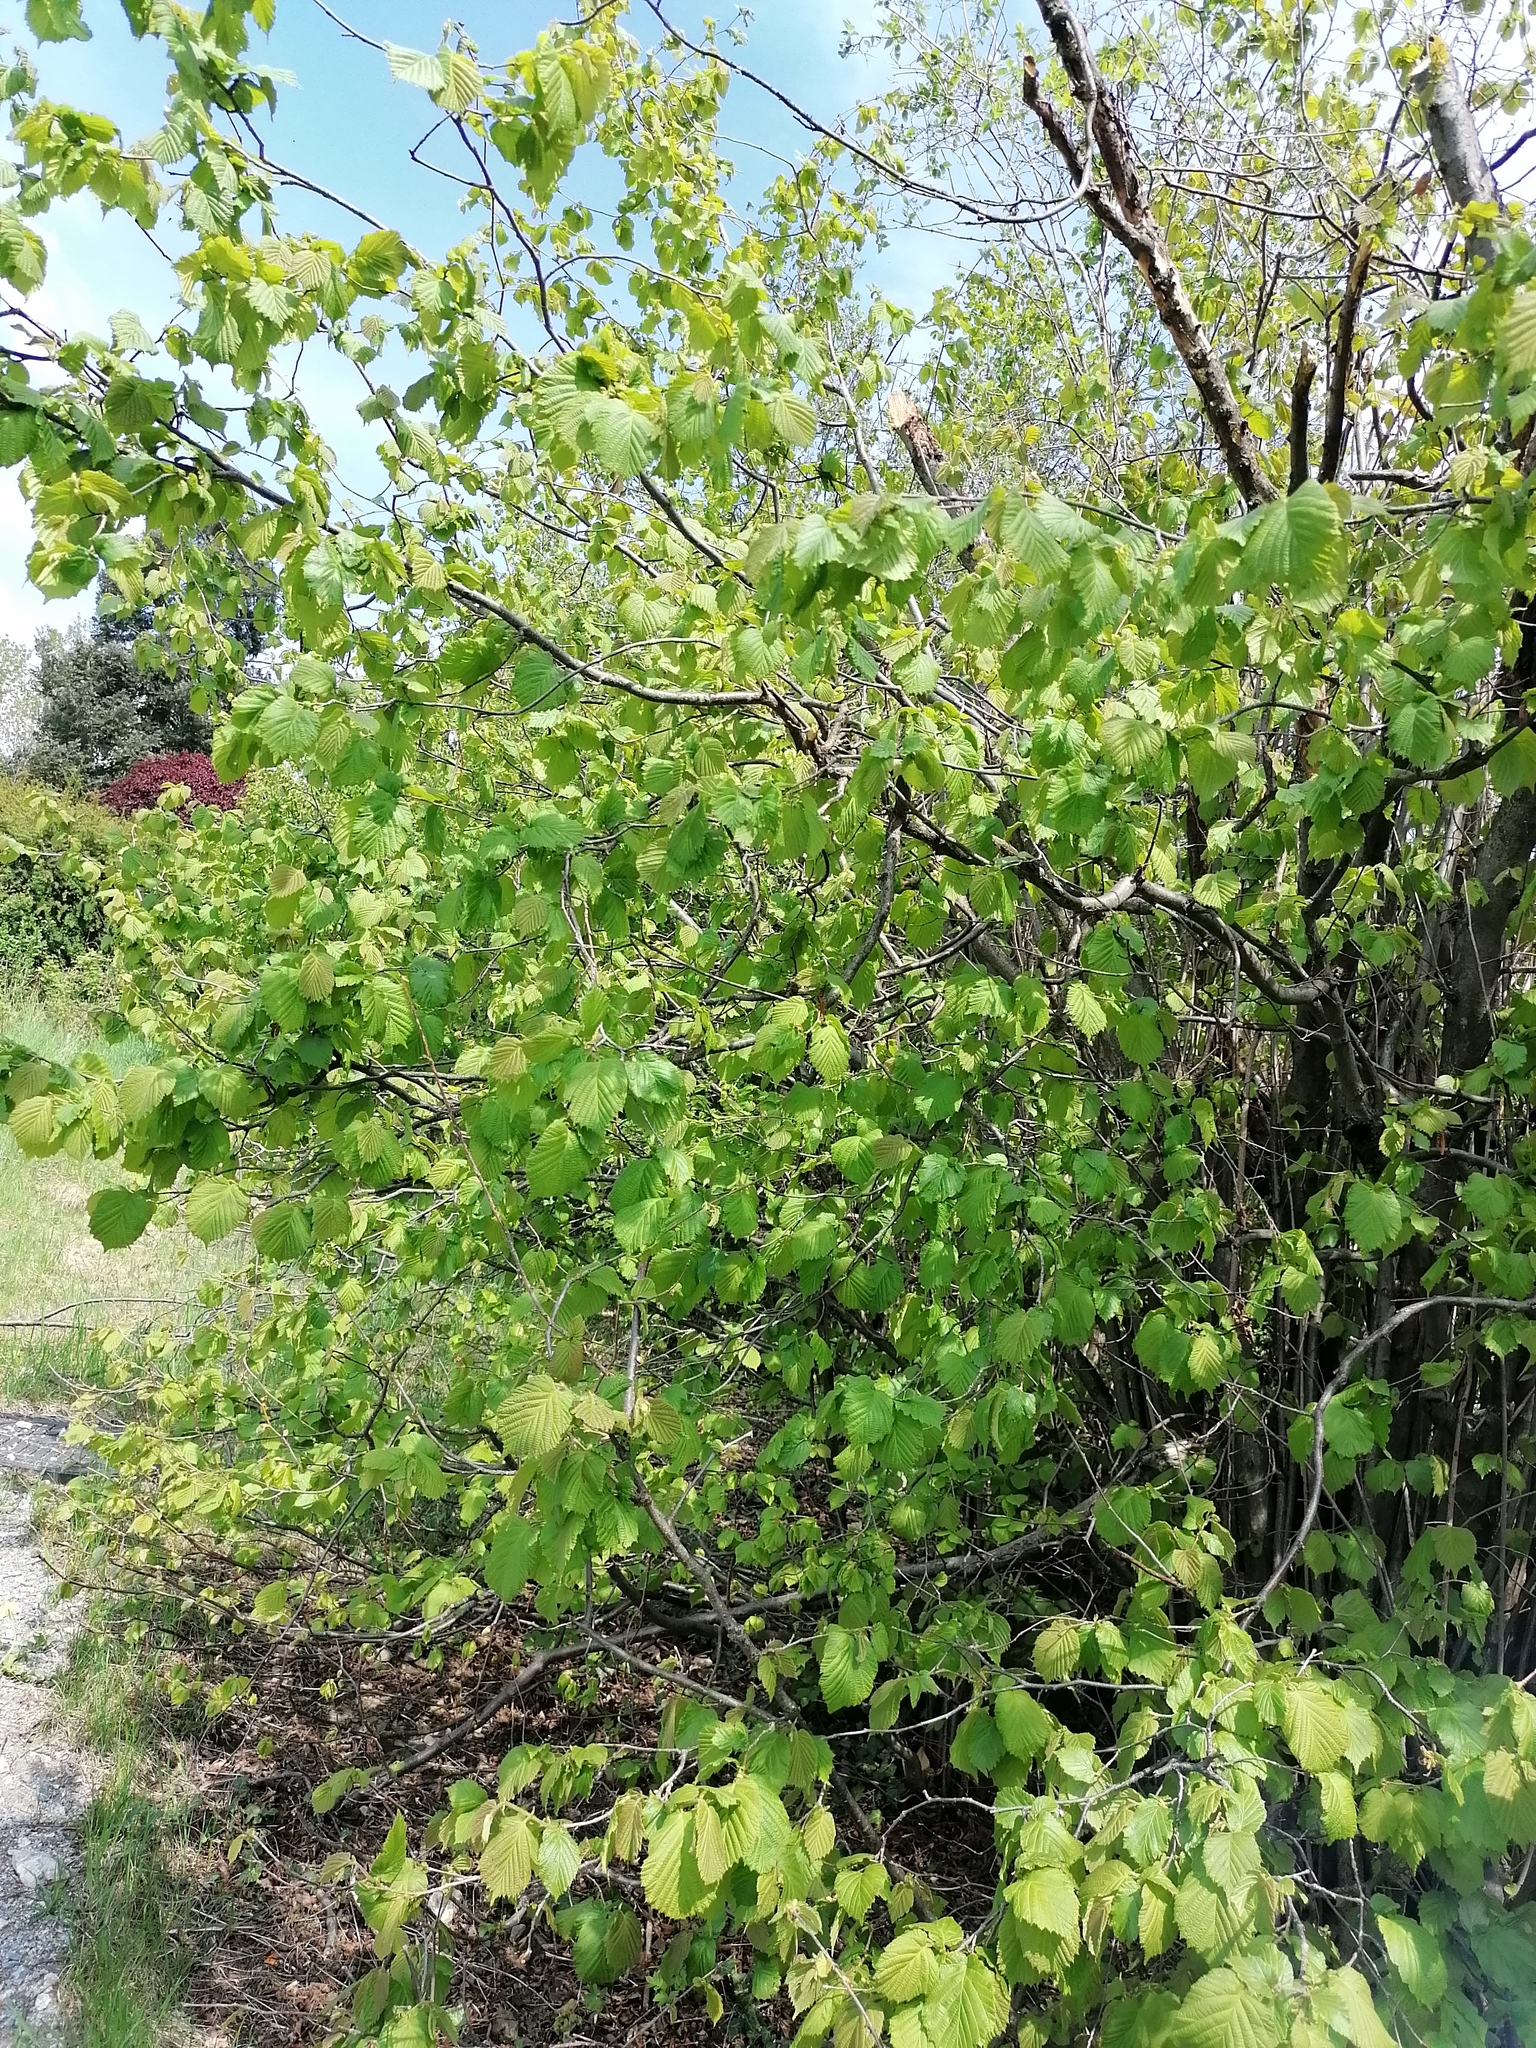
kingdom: Plantae
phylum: Tracheophyta
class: Magnoliopsida
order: Fagales
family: Betulaceae
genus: Corylus
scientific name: Corylus avellana
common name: European hazel
